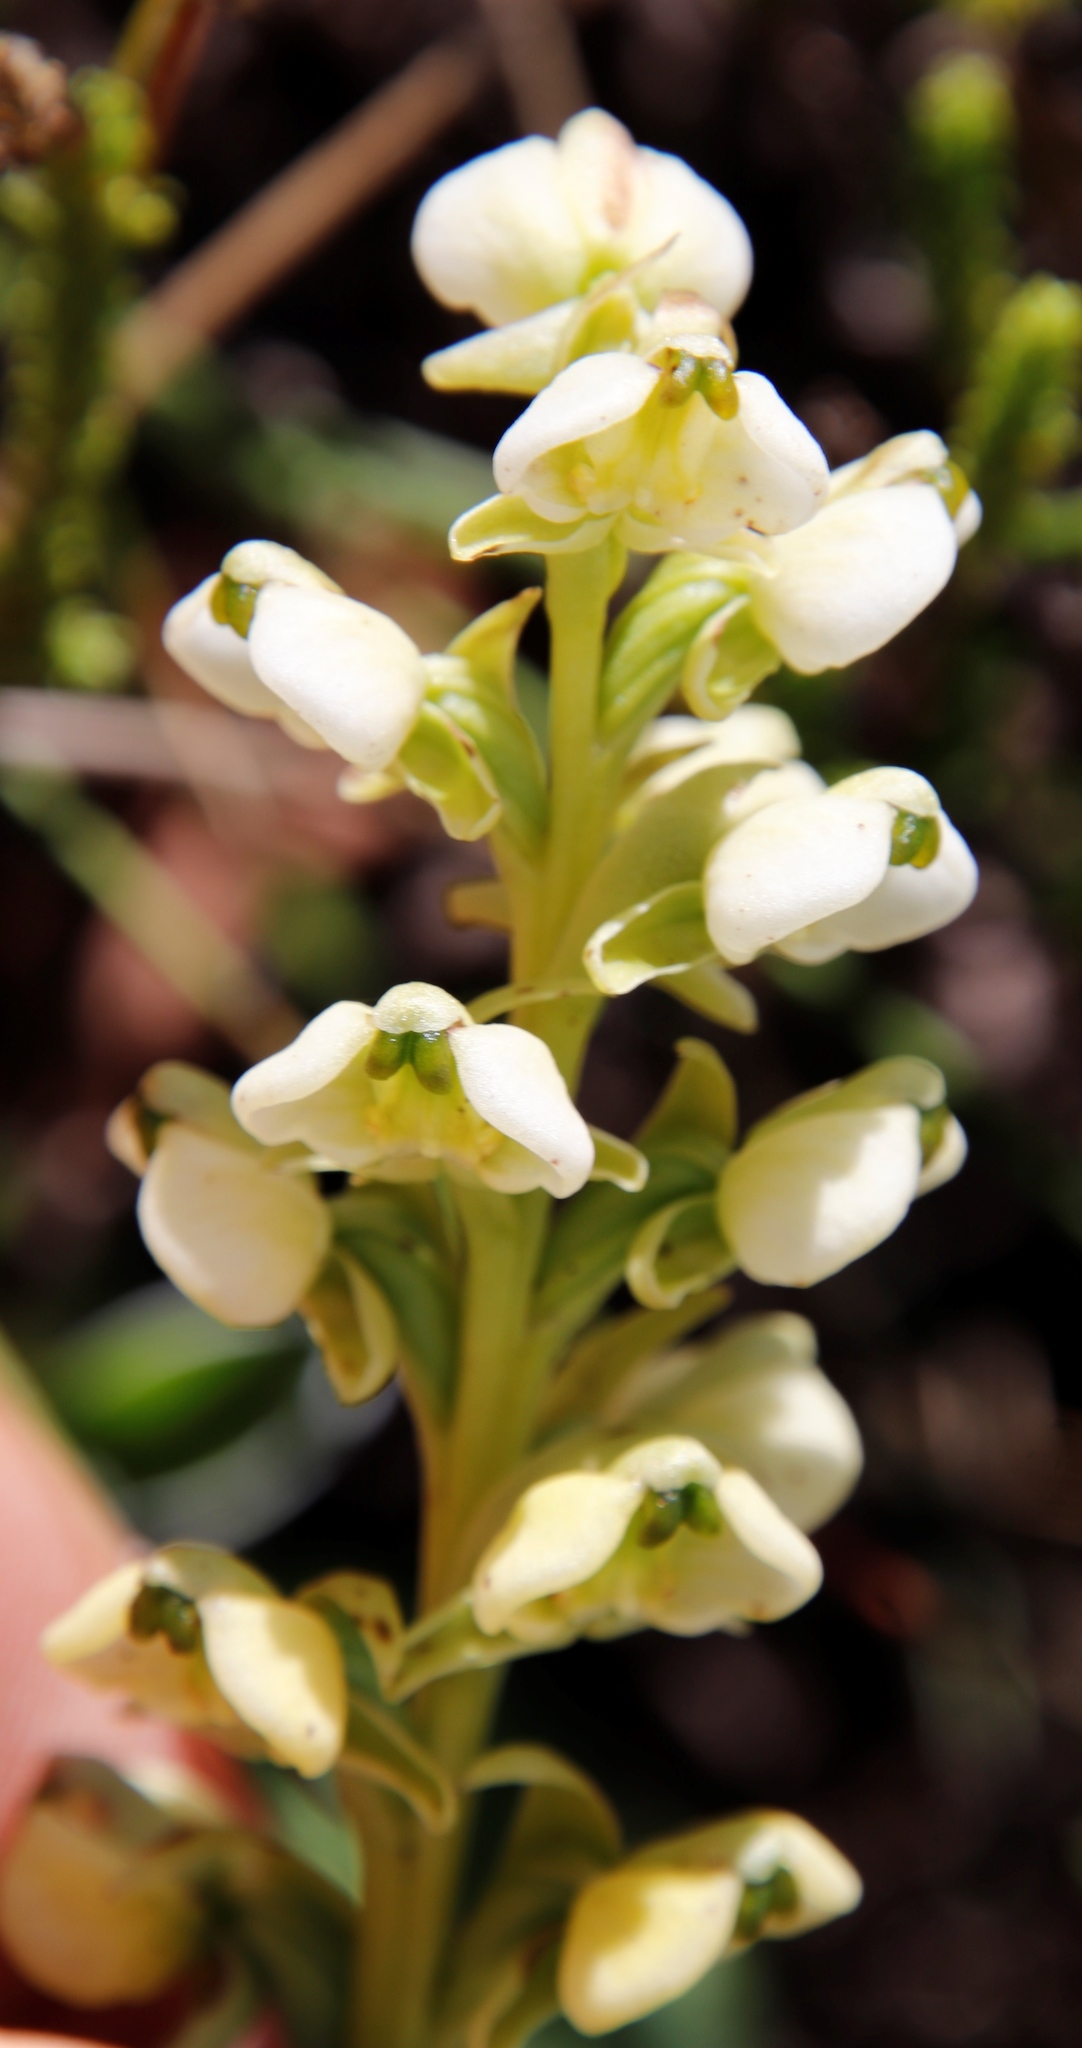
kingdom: Plantae
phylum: Tracheophyta
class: Liliopsida
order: Asparagales
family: Orchidaceae
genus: Pterygodium
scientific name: Pterygodium leucanthum
